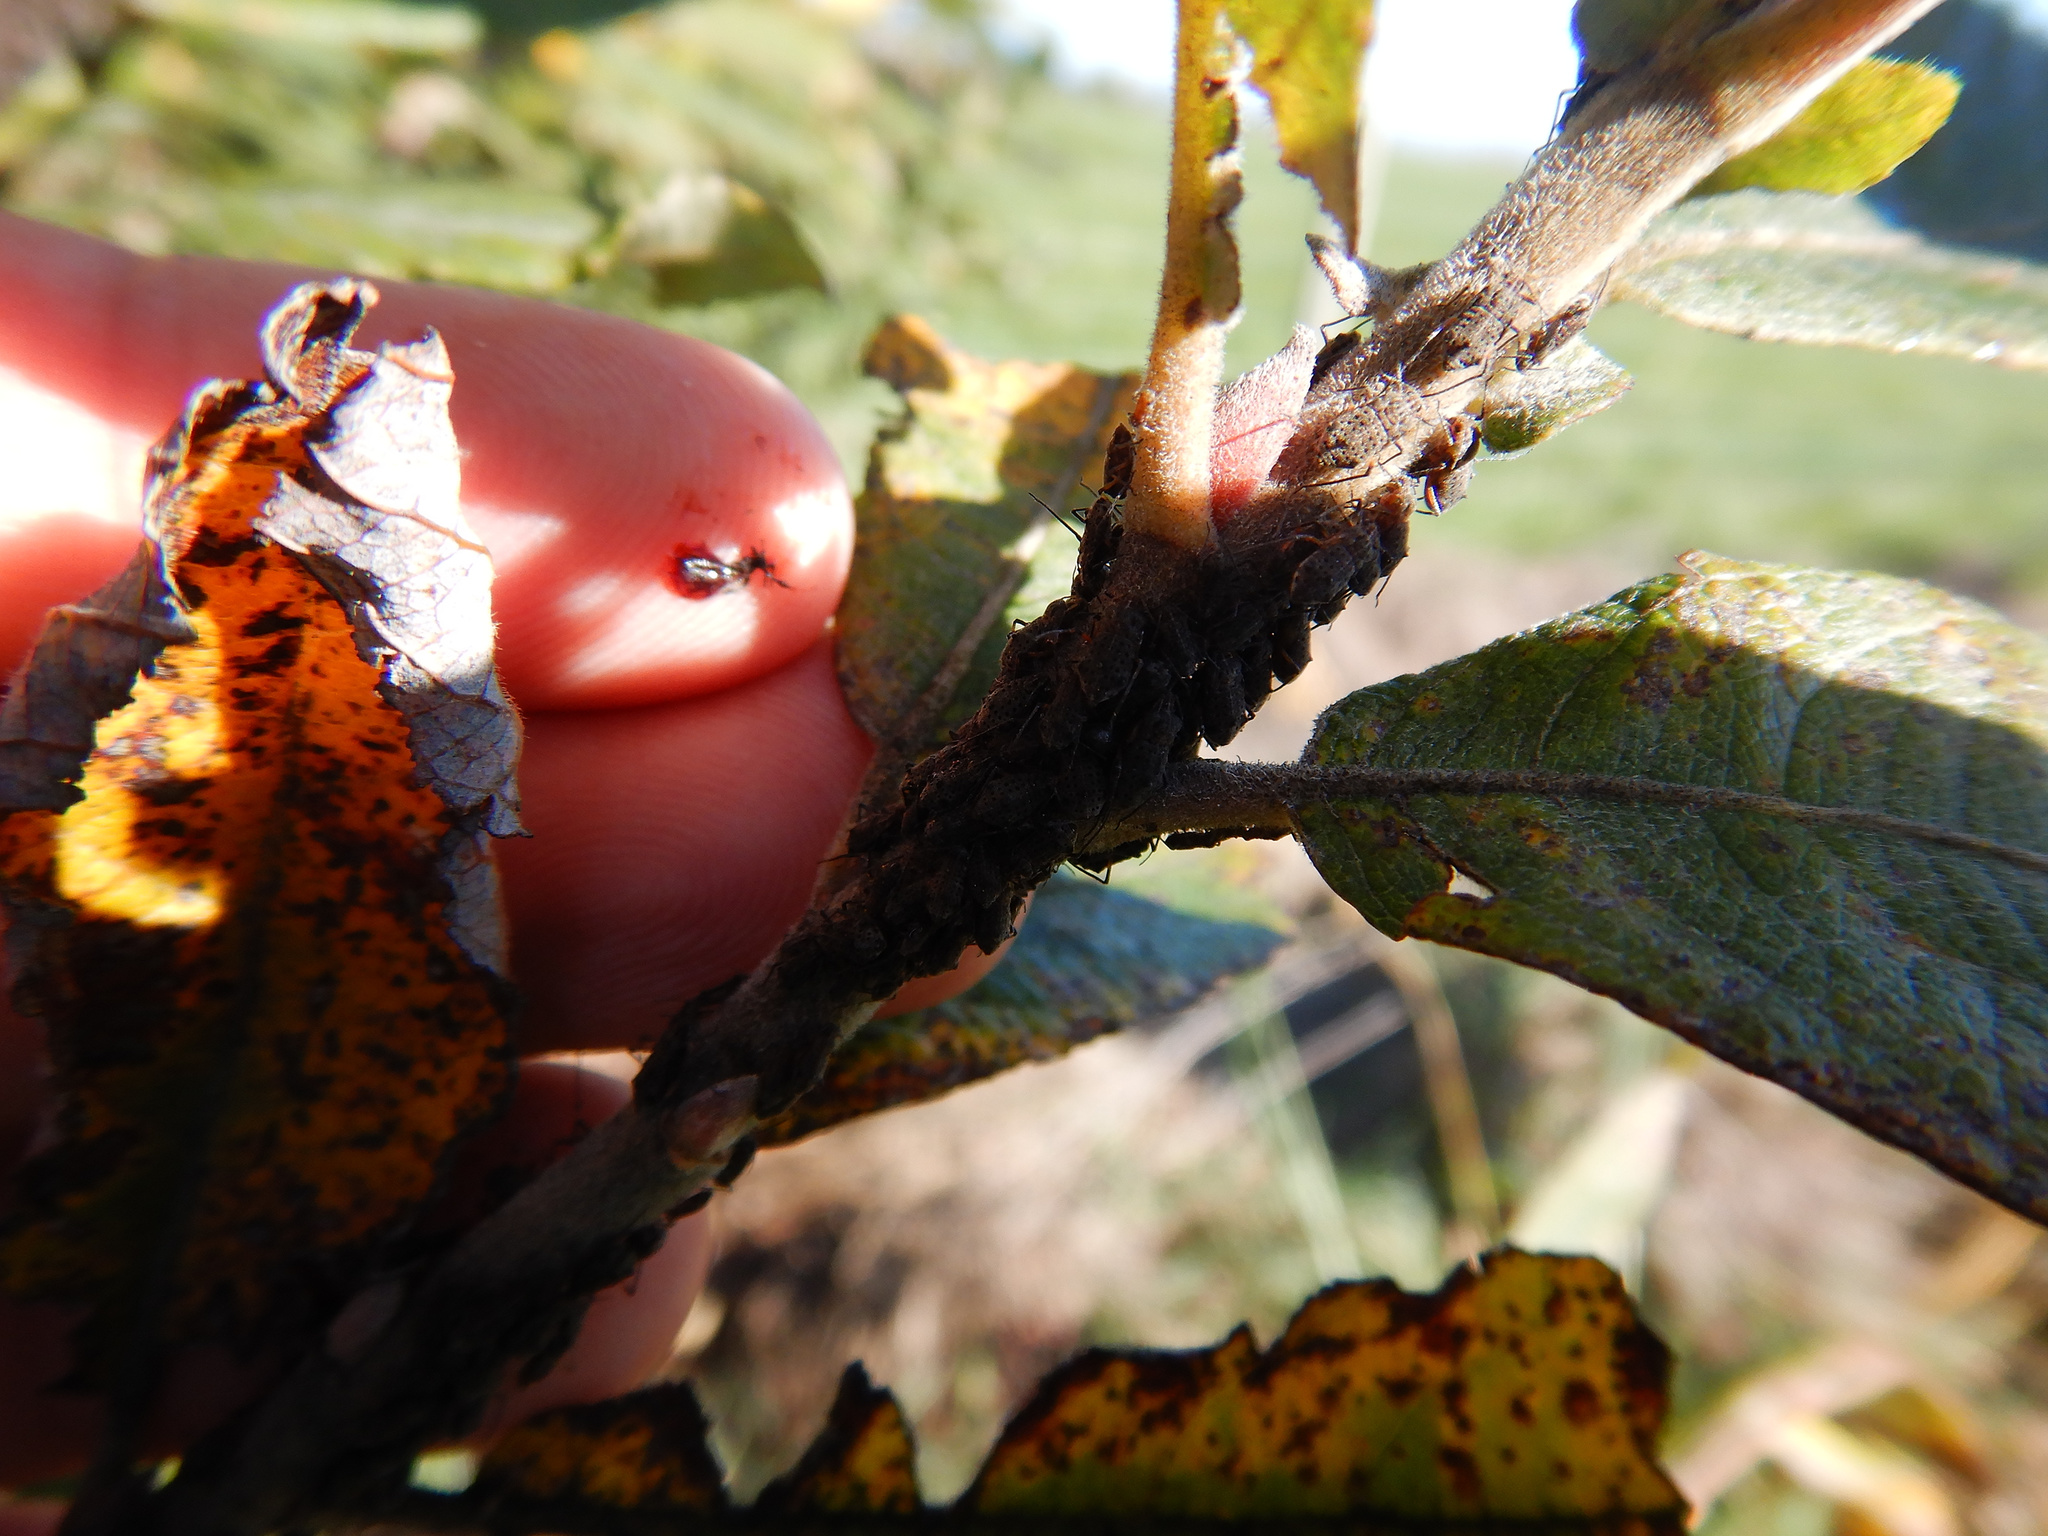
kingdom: Animalia
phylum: Arthropoda
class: Insecta
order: Hemiptera
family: Aphididae
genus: Tuberolachnus
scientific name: Tuberolachnus salignus
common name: Giant willow aphid
